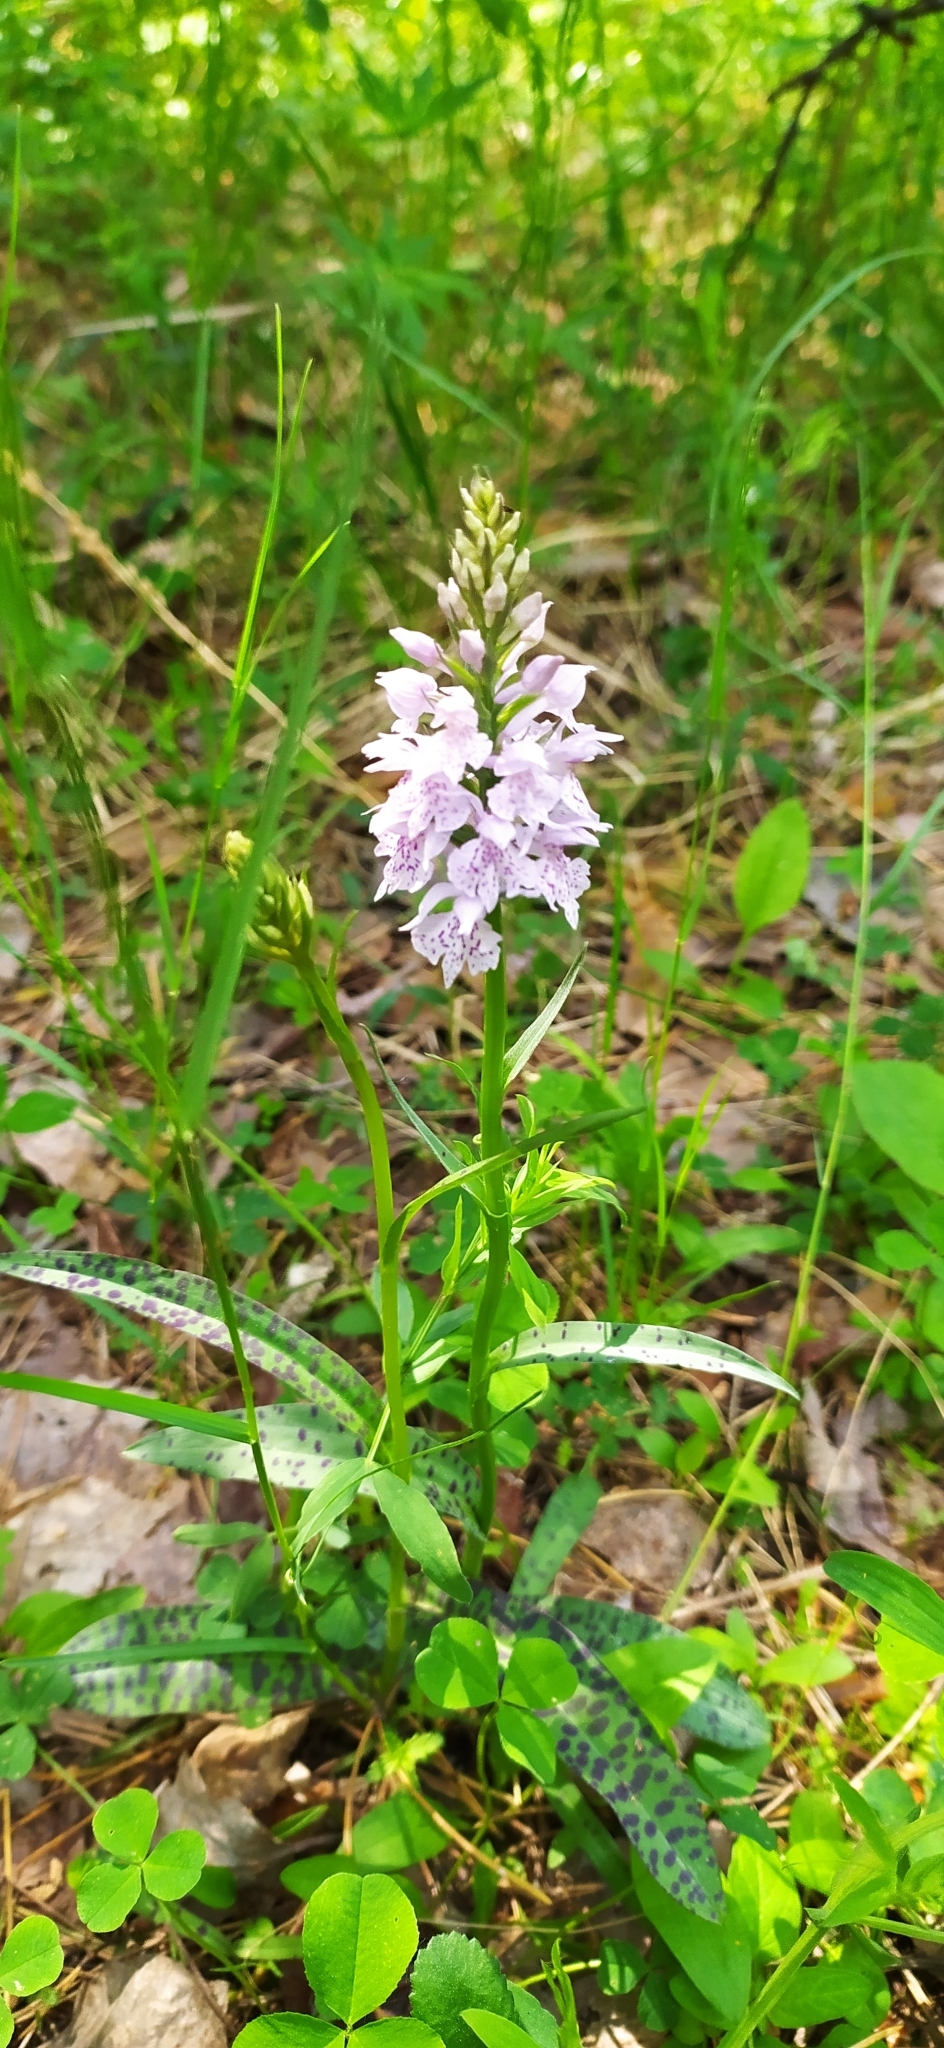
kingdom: Plantae
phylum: Tracheophyta
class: Liliopsida
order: Asparagales
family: Orchidaceae
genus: Dactylorhiza
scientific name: Dactylorhiza maculata
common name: Heath spotted-orchid
